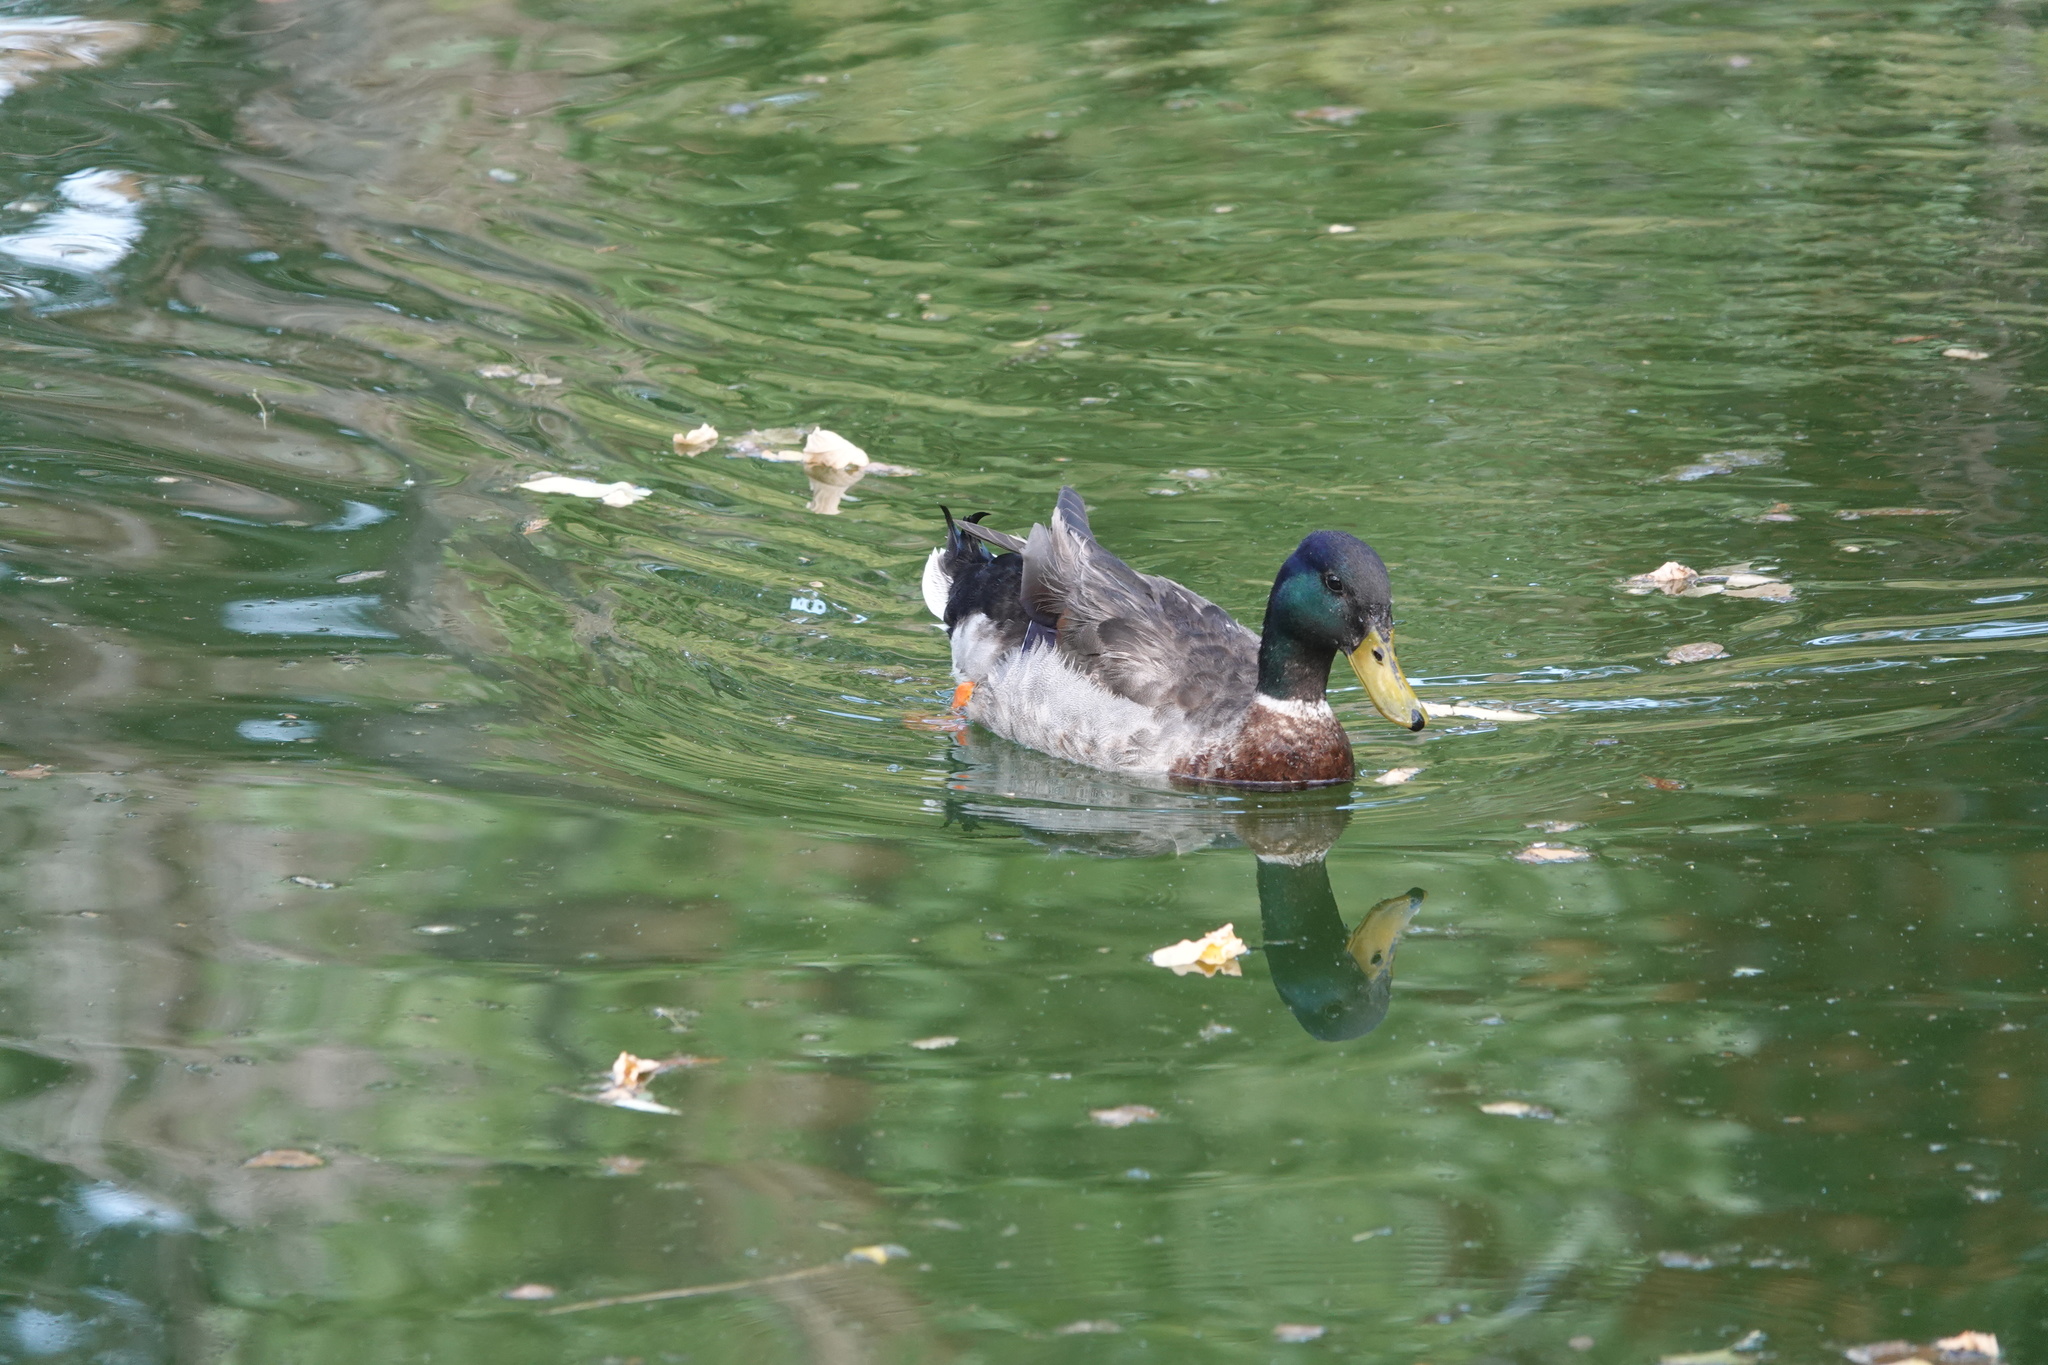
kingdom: Animalia
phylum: Chordata
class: Aves
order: Anseriformes
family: Anatidae
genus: Anas
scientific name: Anas platyrhynchos
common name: Mallard
